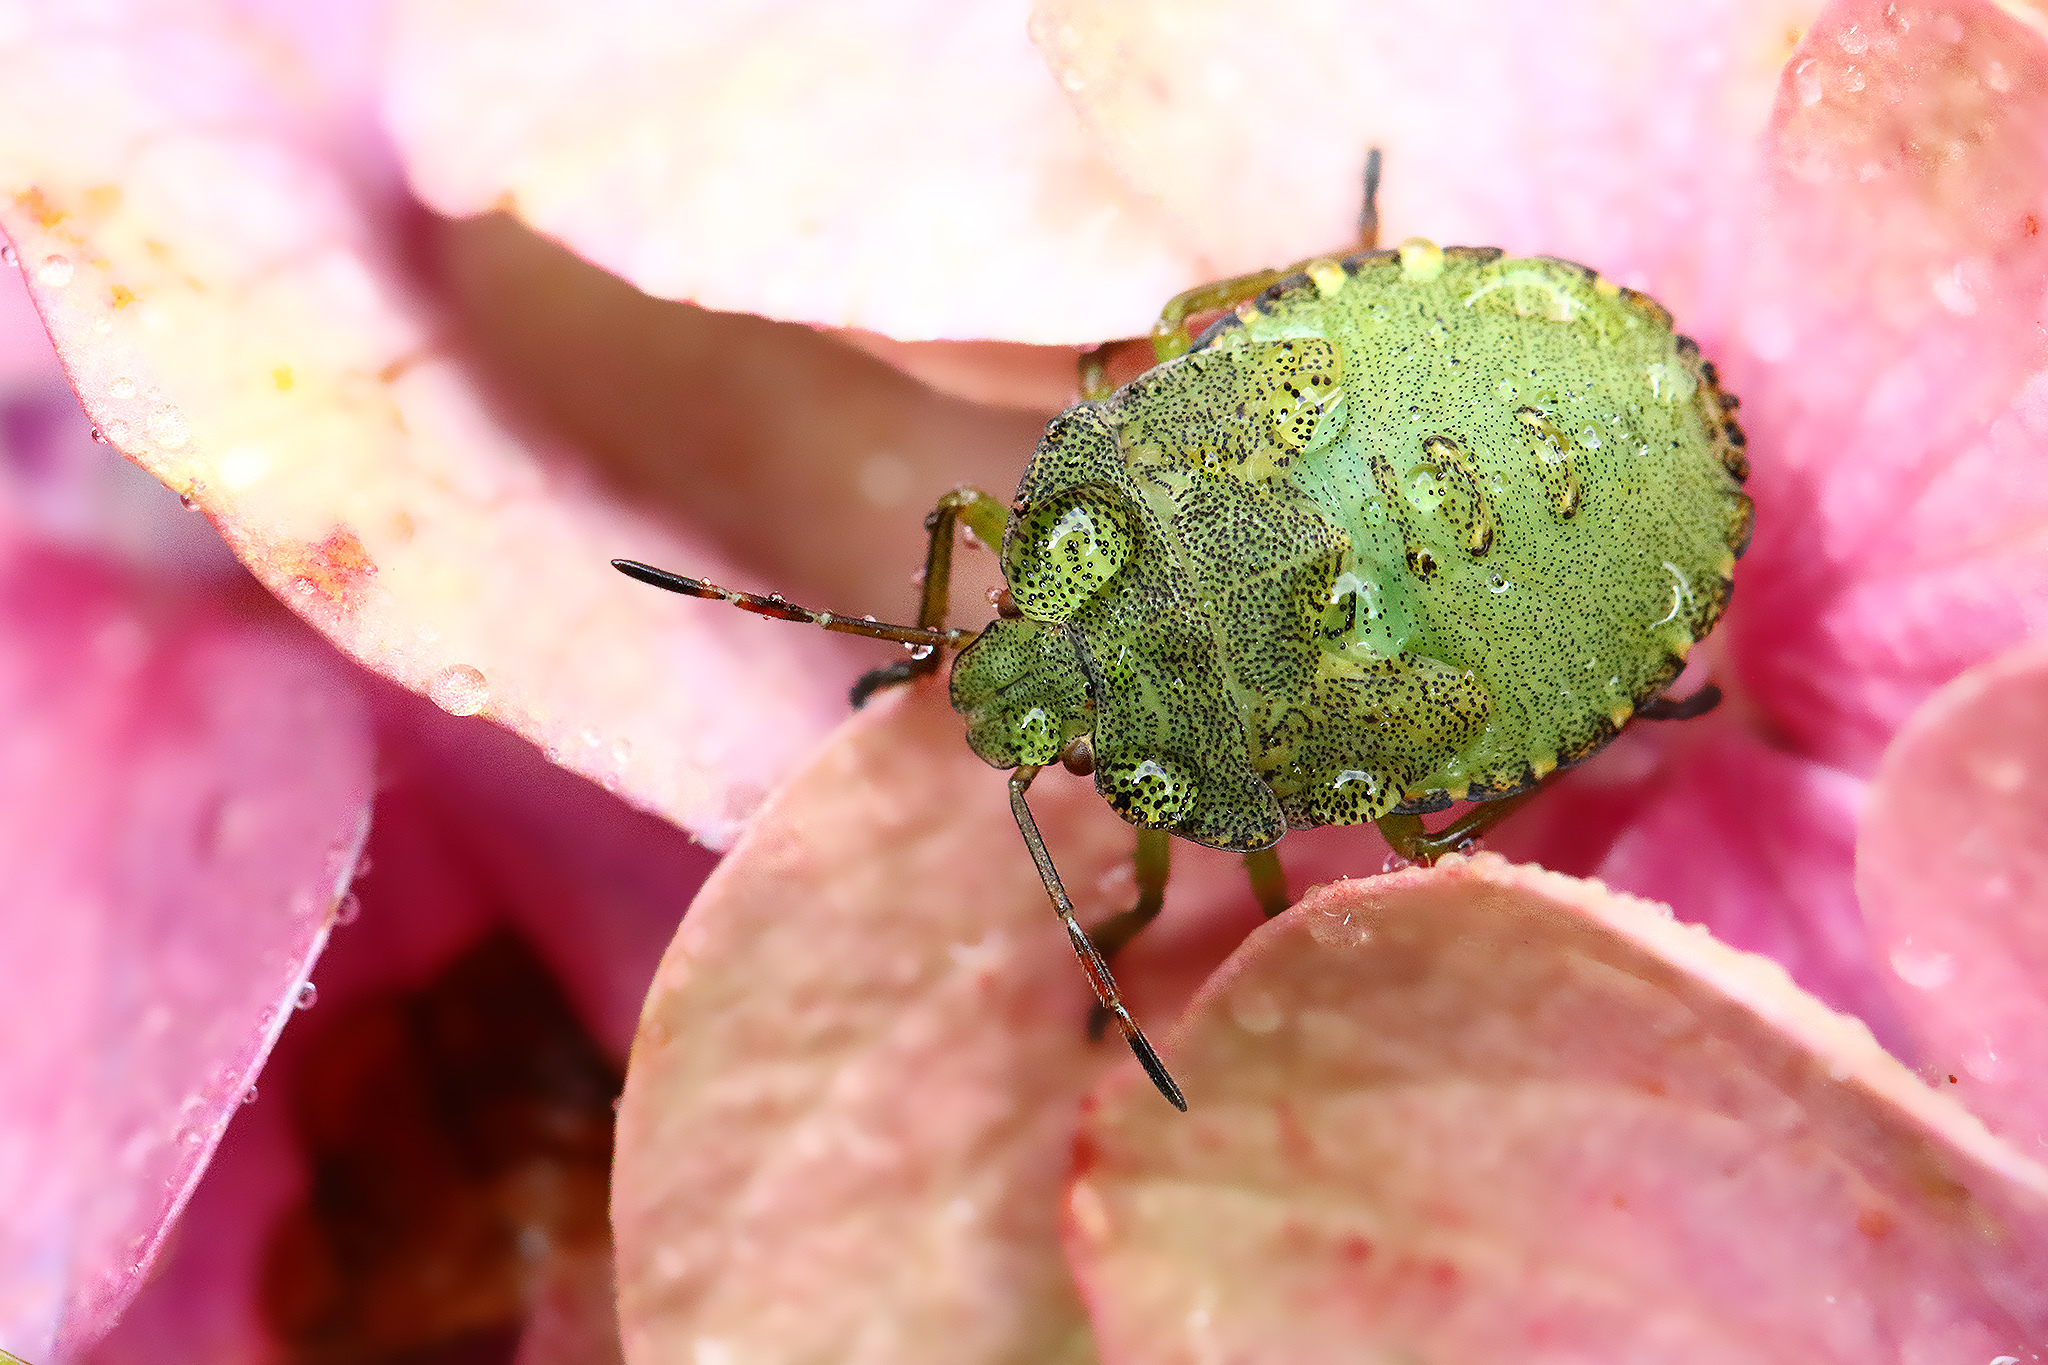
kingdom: Animalia
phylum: Arthropoda
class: Insecta
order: Hemiptera
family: Pentatomidae
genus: Palomena
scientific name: Palomena prasina
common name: Green shieldbug
